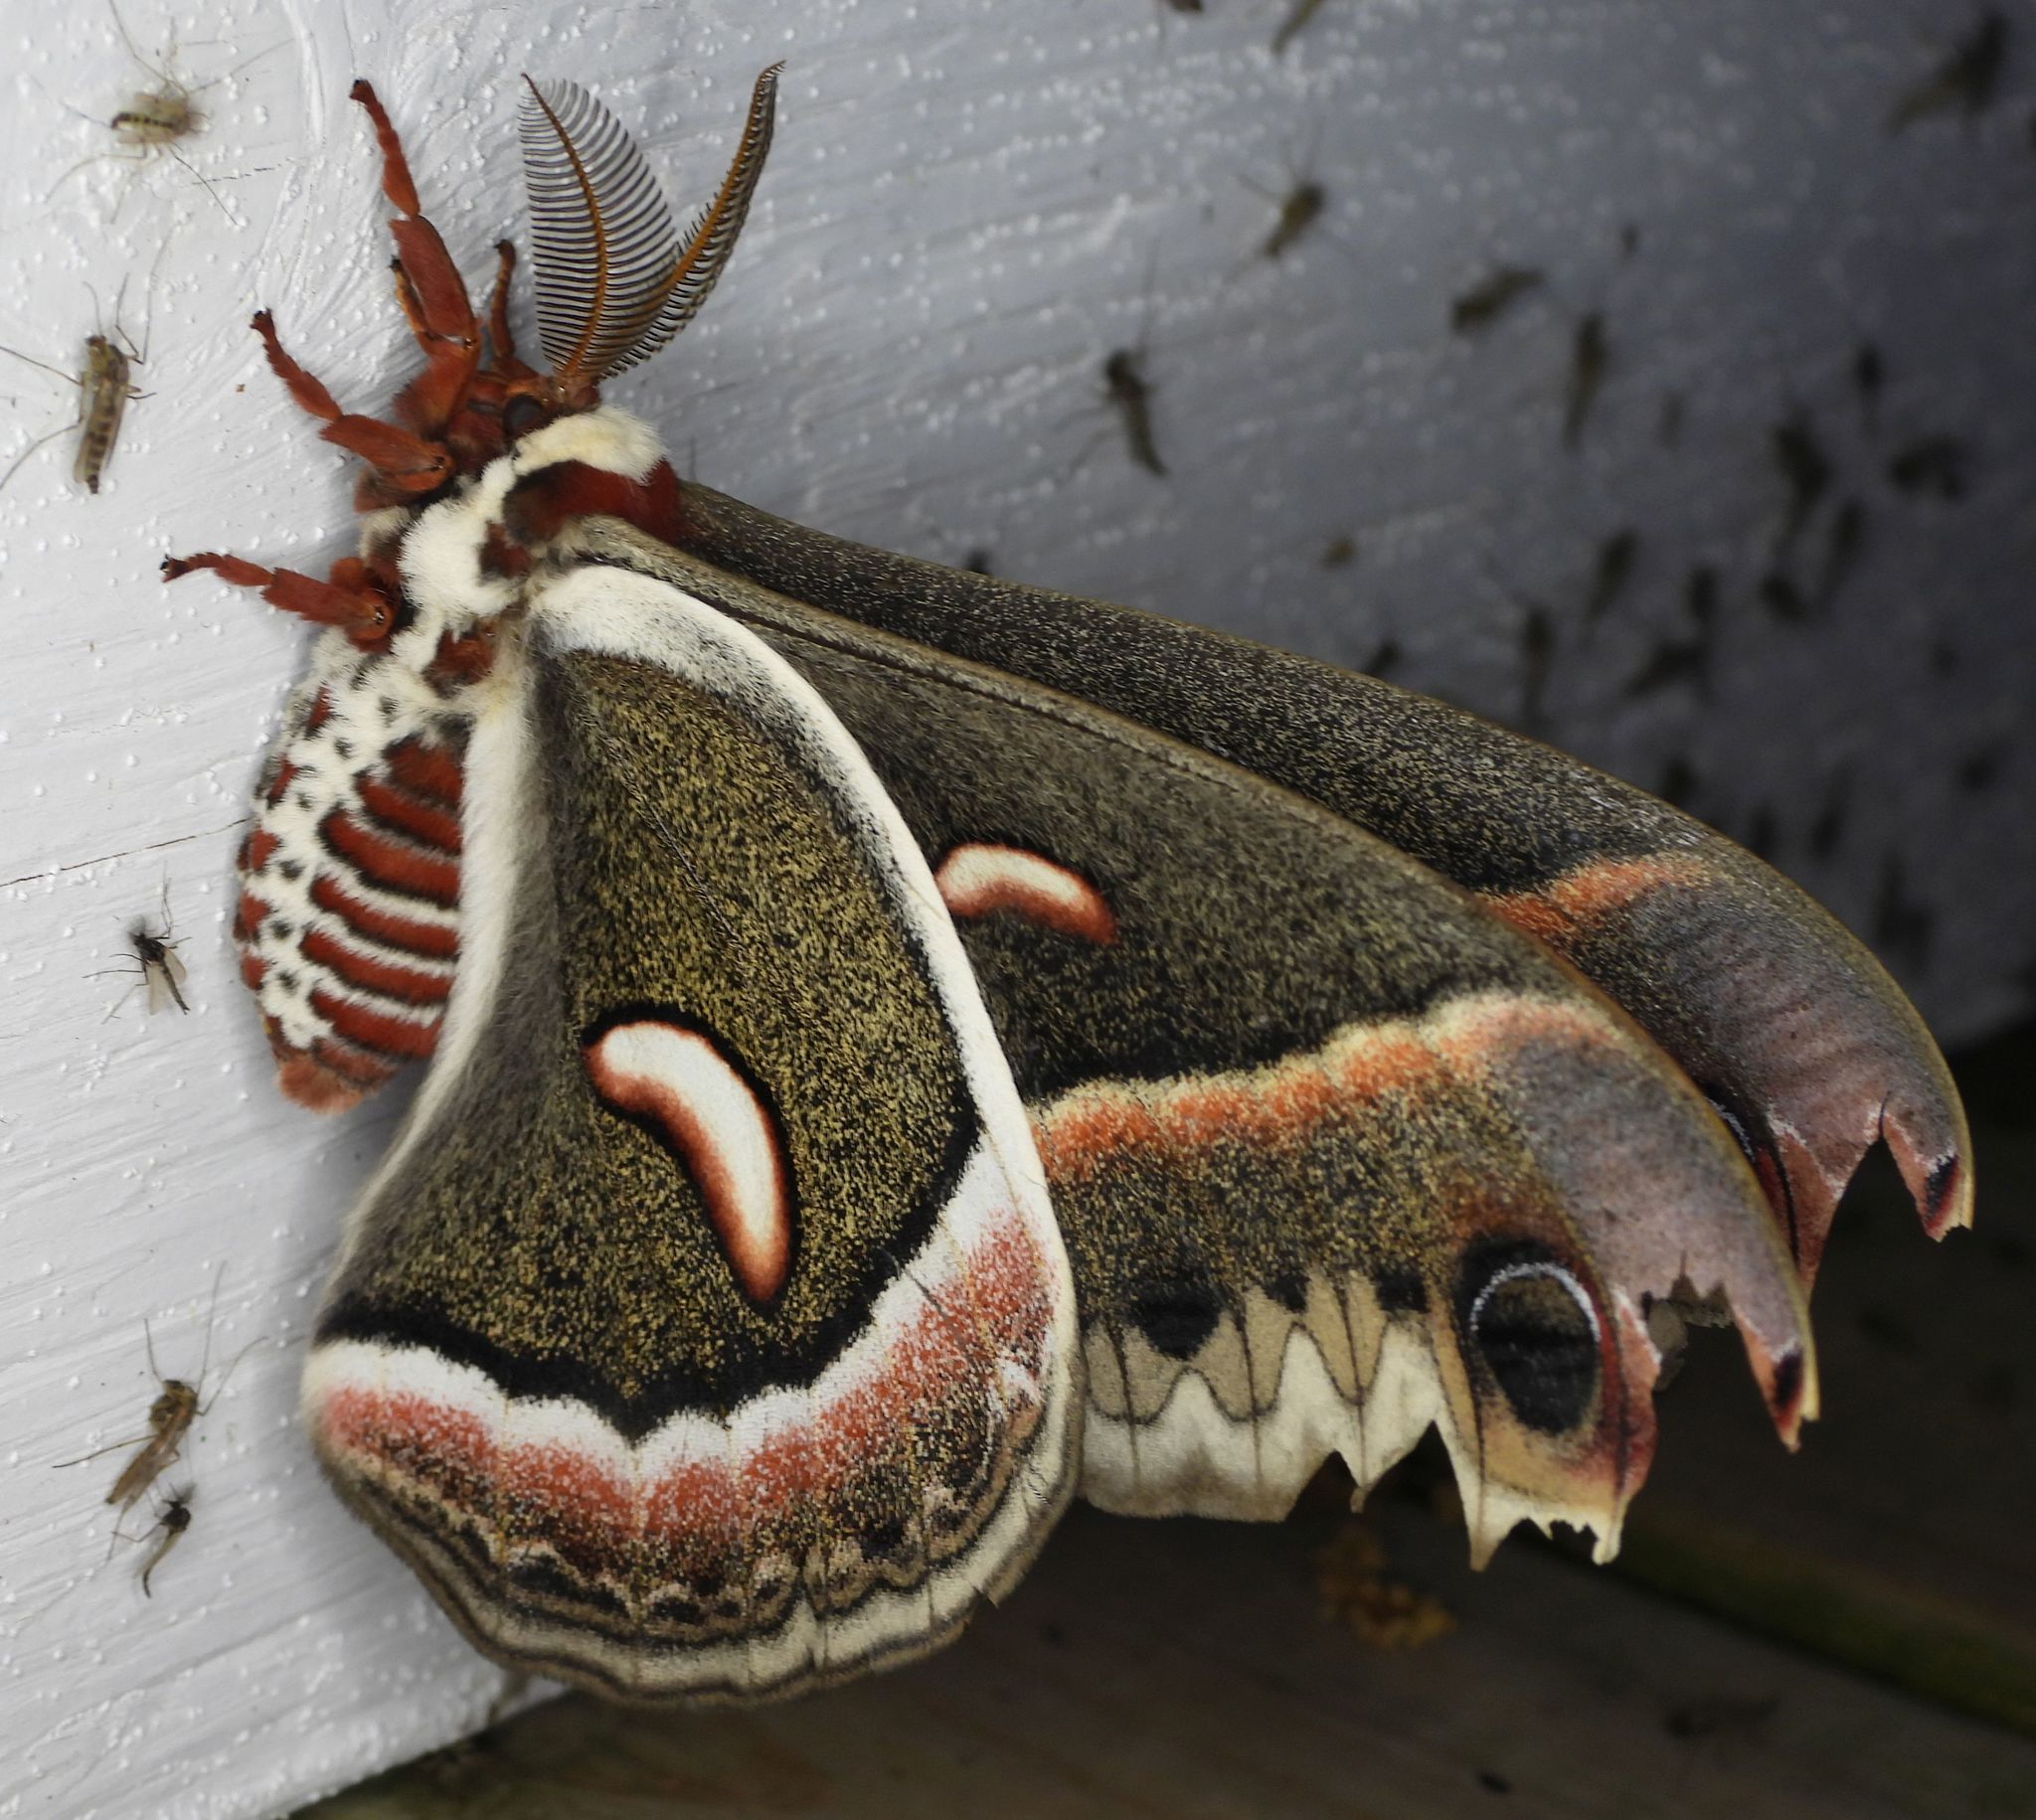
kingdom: Animalia
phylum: Arthropoda
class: Insecta
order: Lepidoptera
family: Saturniidae
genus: Hyalophora
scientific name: Hyalophora cecropia
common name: Cecropia silkmoth
